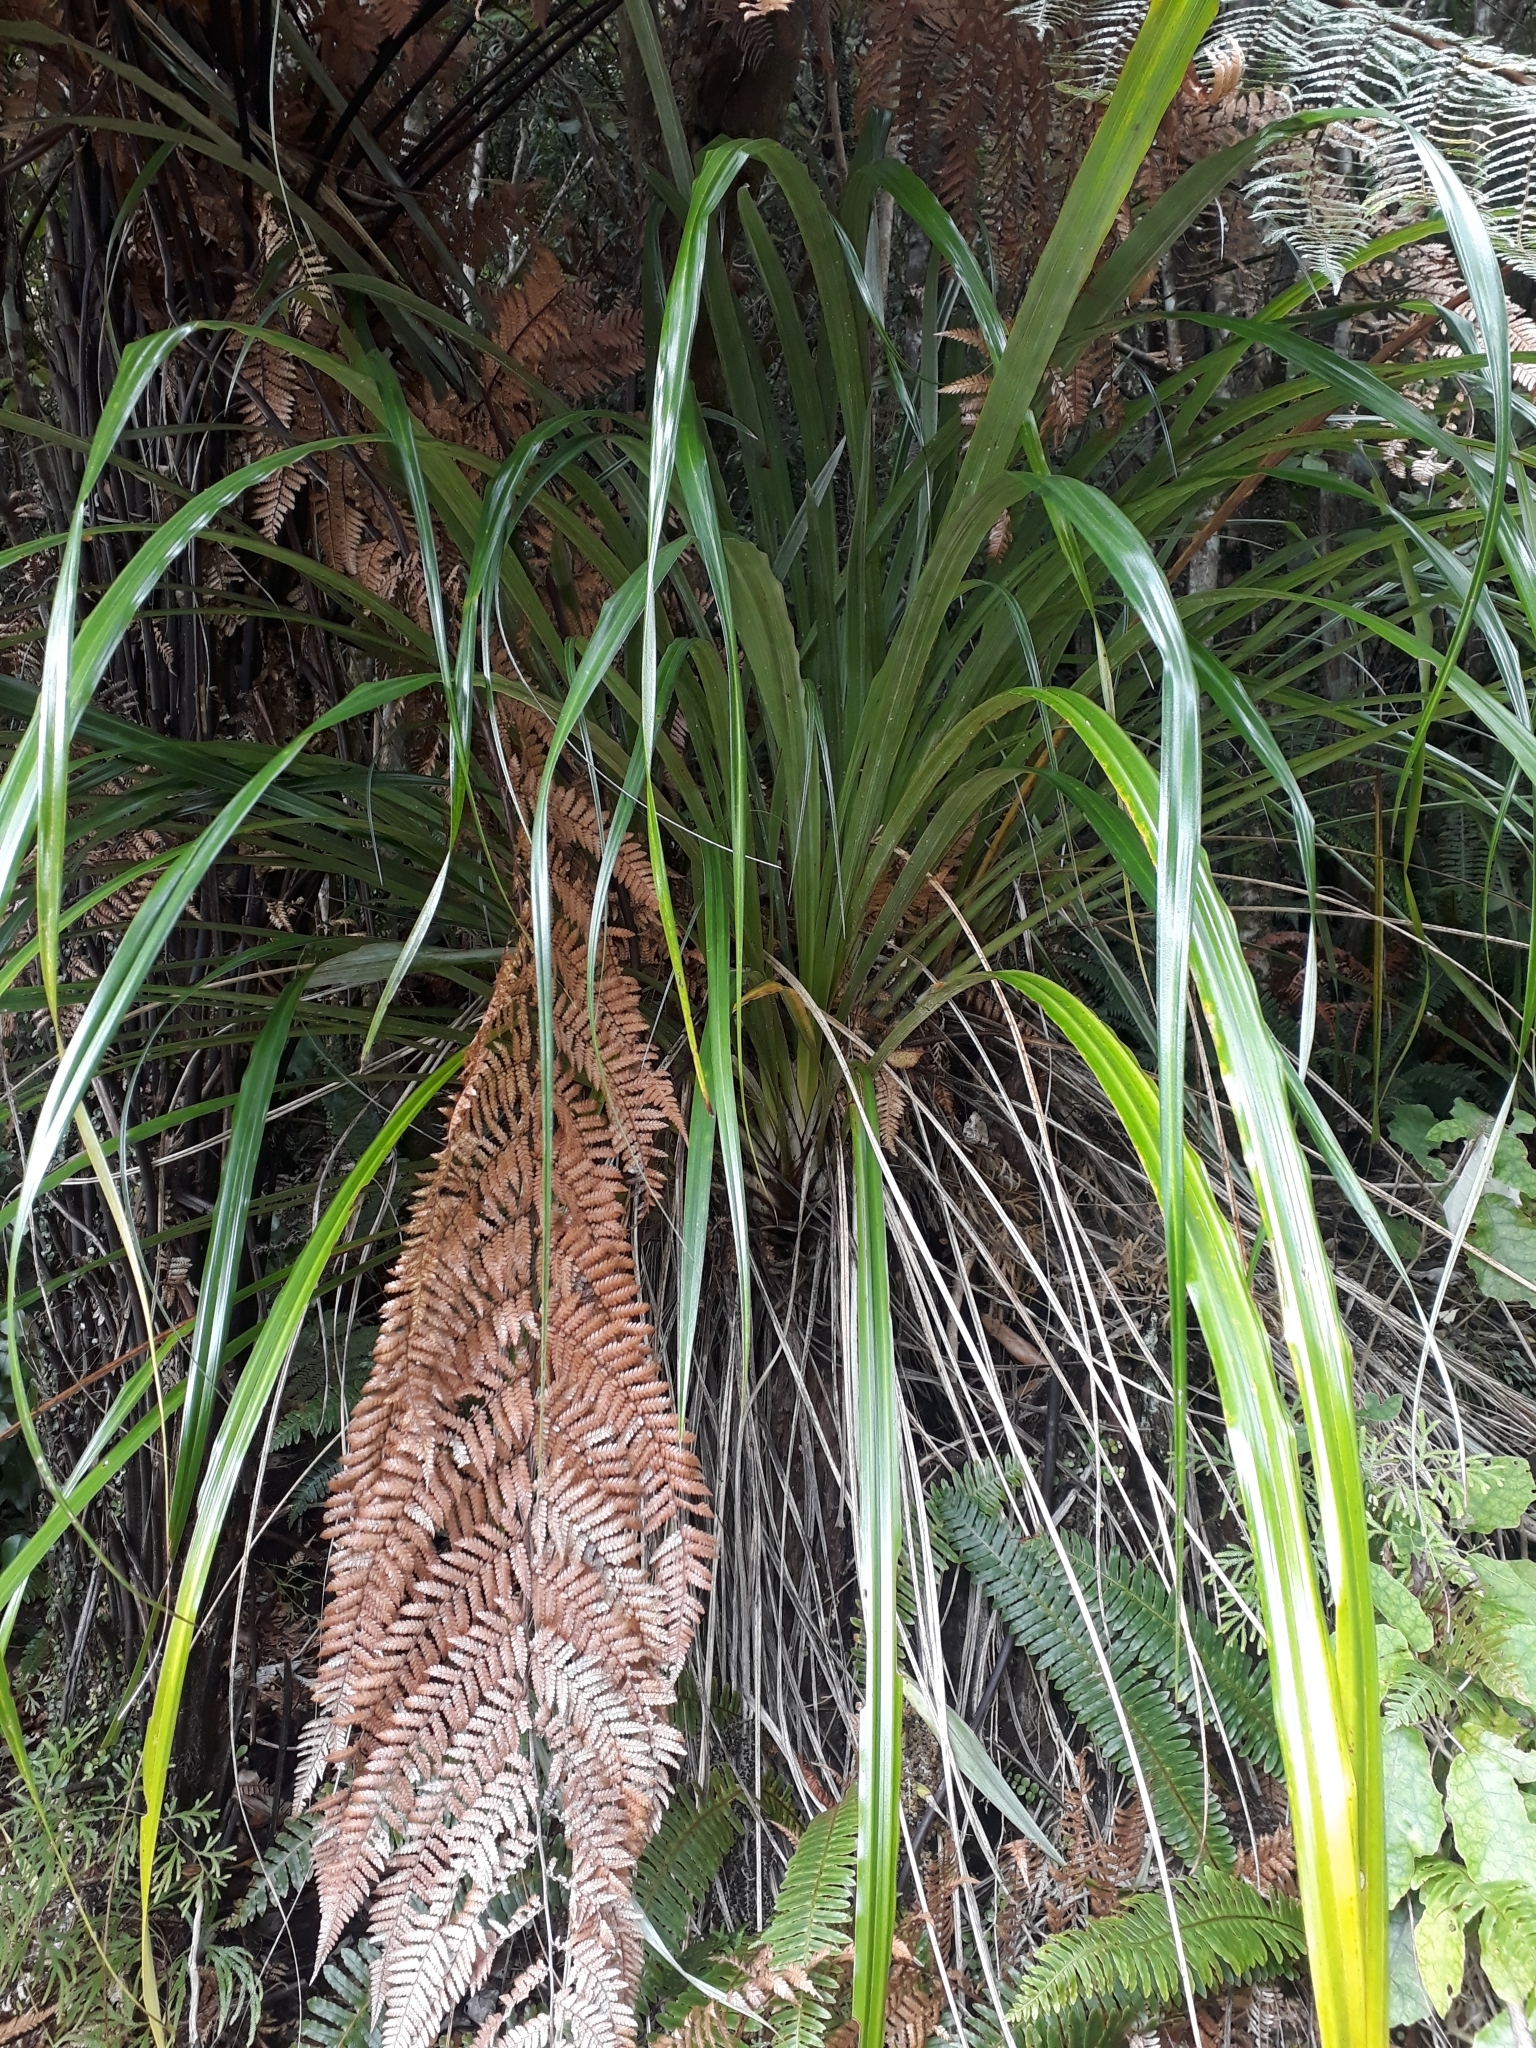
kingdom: Plantae
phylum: Tracheophyta
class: Liliopsida
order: Asparagales
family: Asteliaceae
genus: Astelia
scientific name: Astelia solandri
